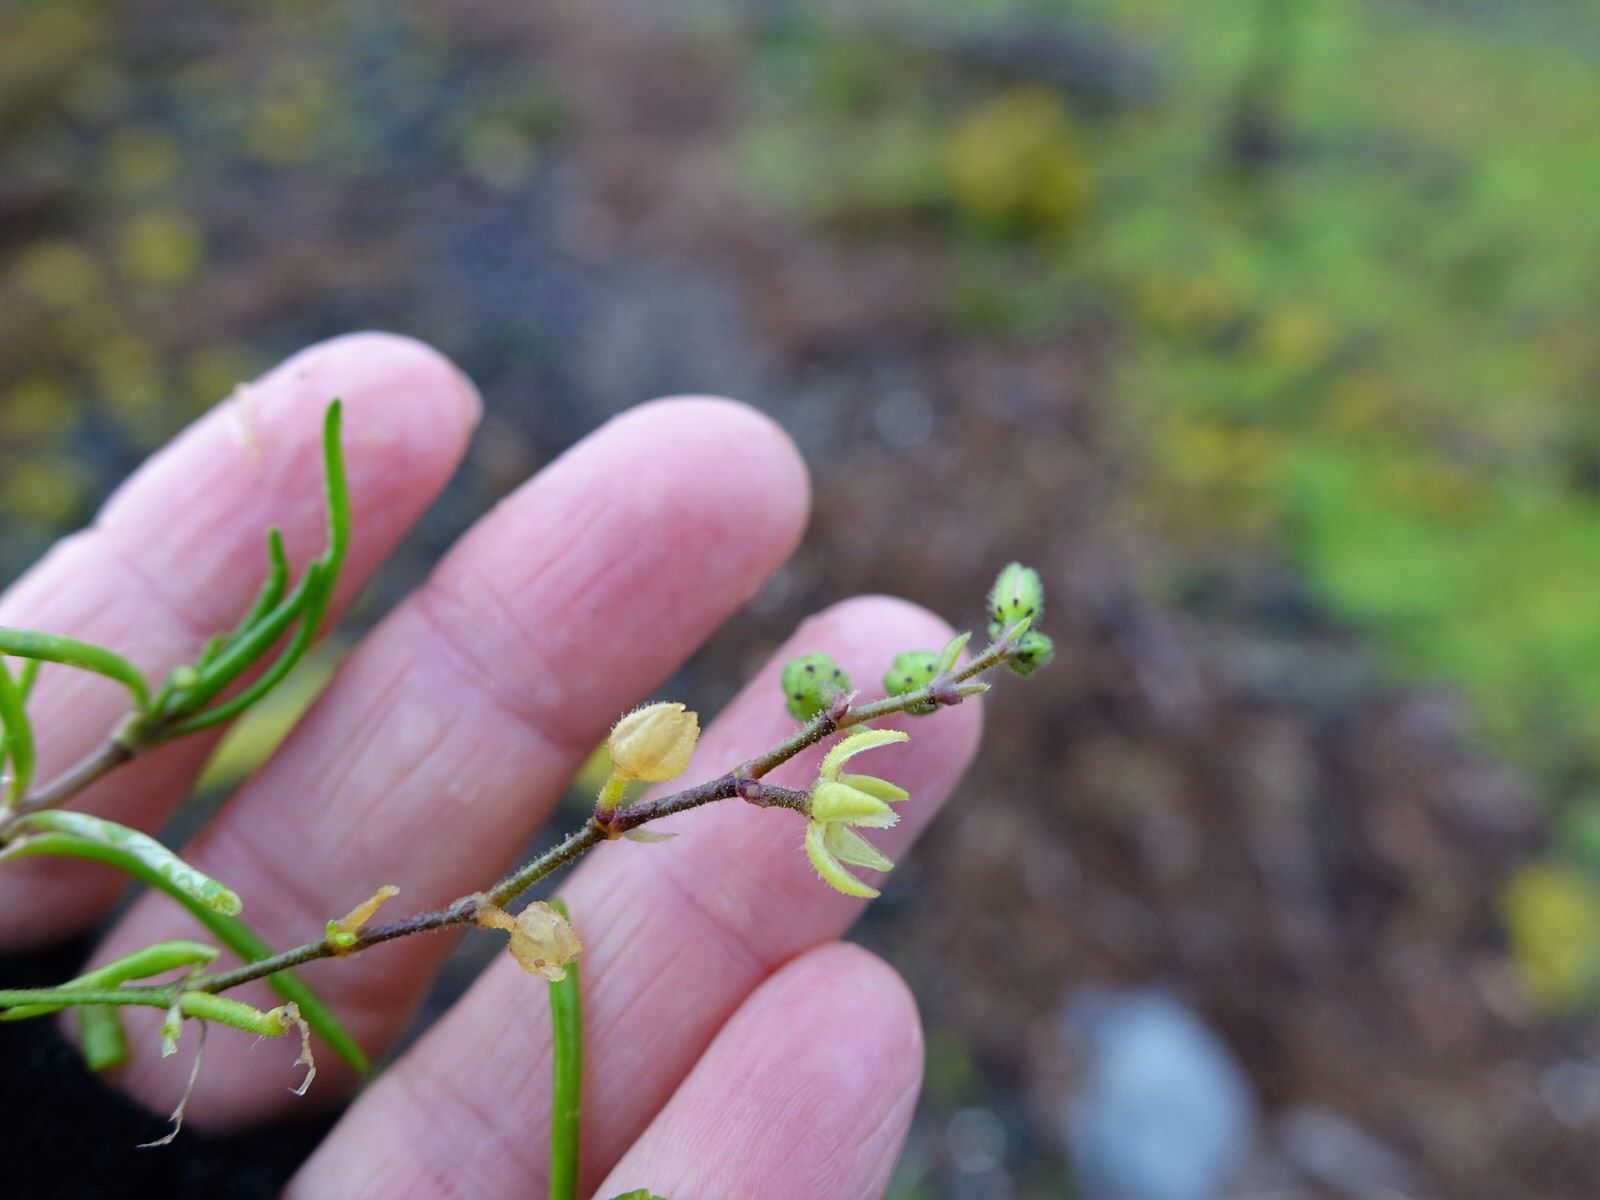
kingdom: Plantae
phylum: Tracheophyta
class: Magnoliopsida
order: Caryophyllales
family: Caryophyllaceae
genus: Spergularia
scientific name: Spergularia tasmanica
